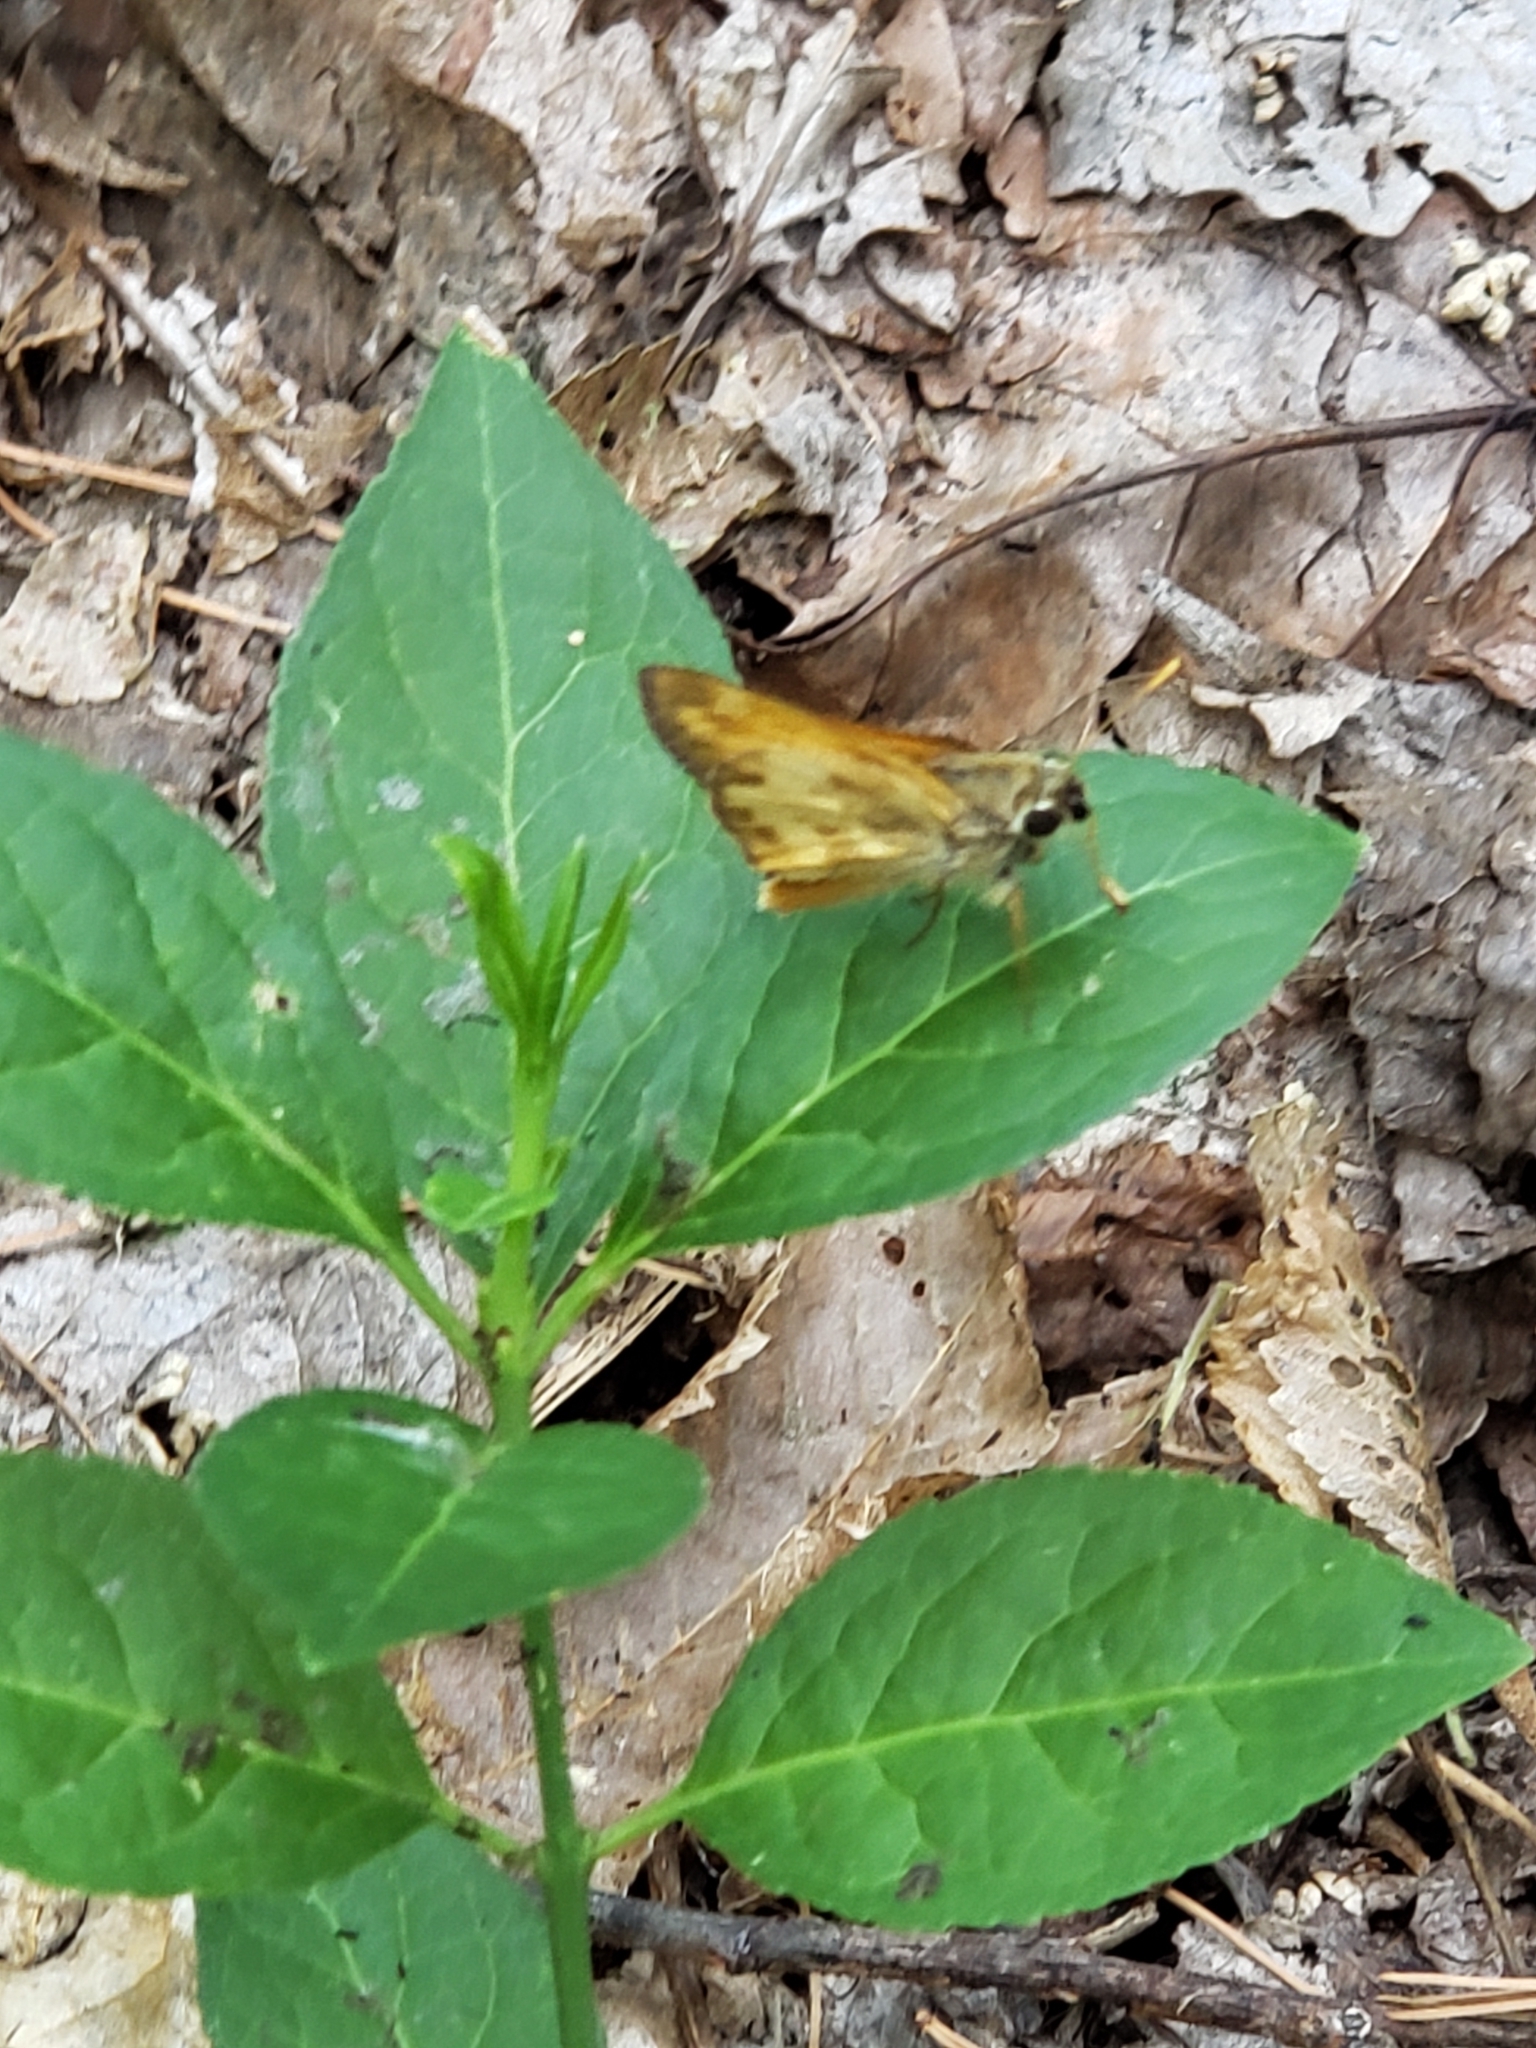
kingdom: Animalia
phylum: Arthropoda
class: Insecta
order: Lepidoptera
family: Hesperiidae
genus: Lon
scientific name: Lon taxiles
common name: Taxiles skipper
